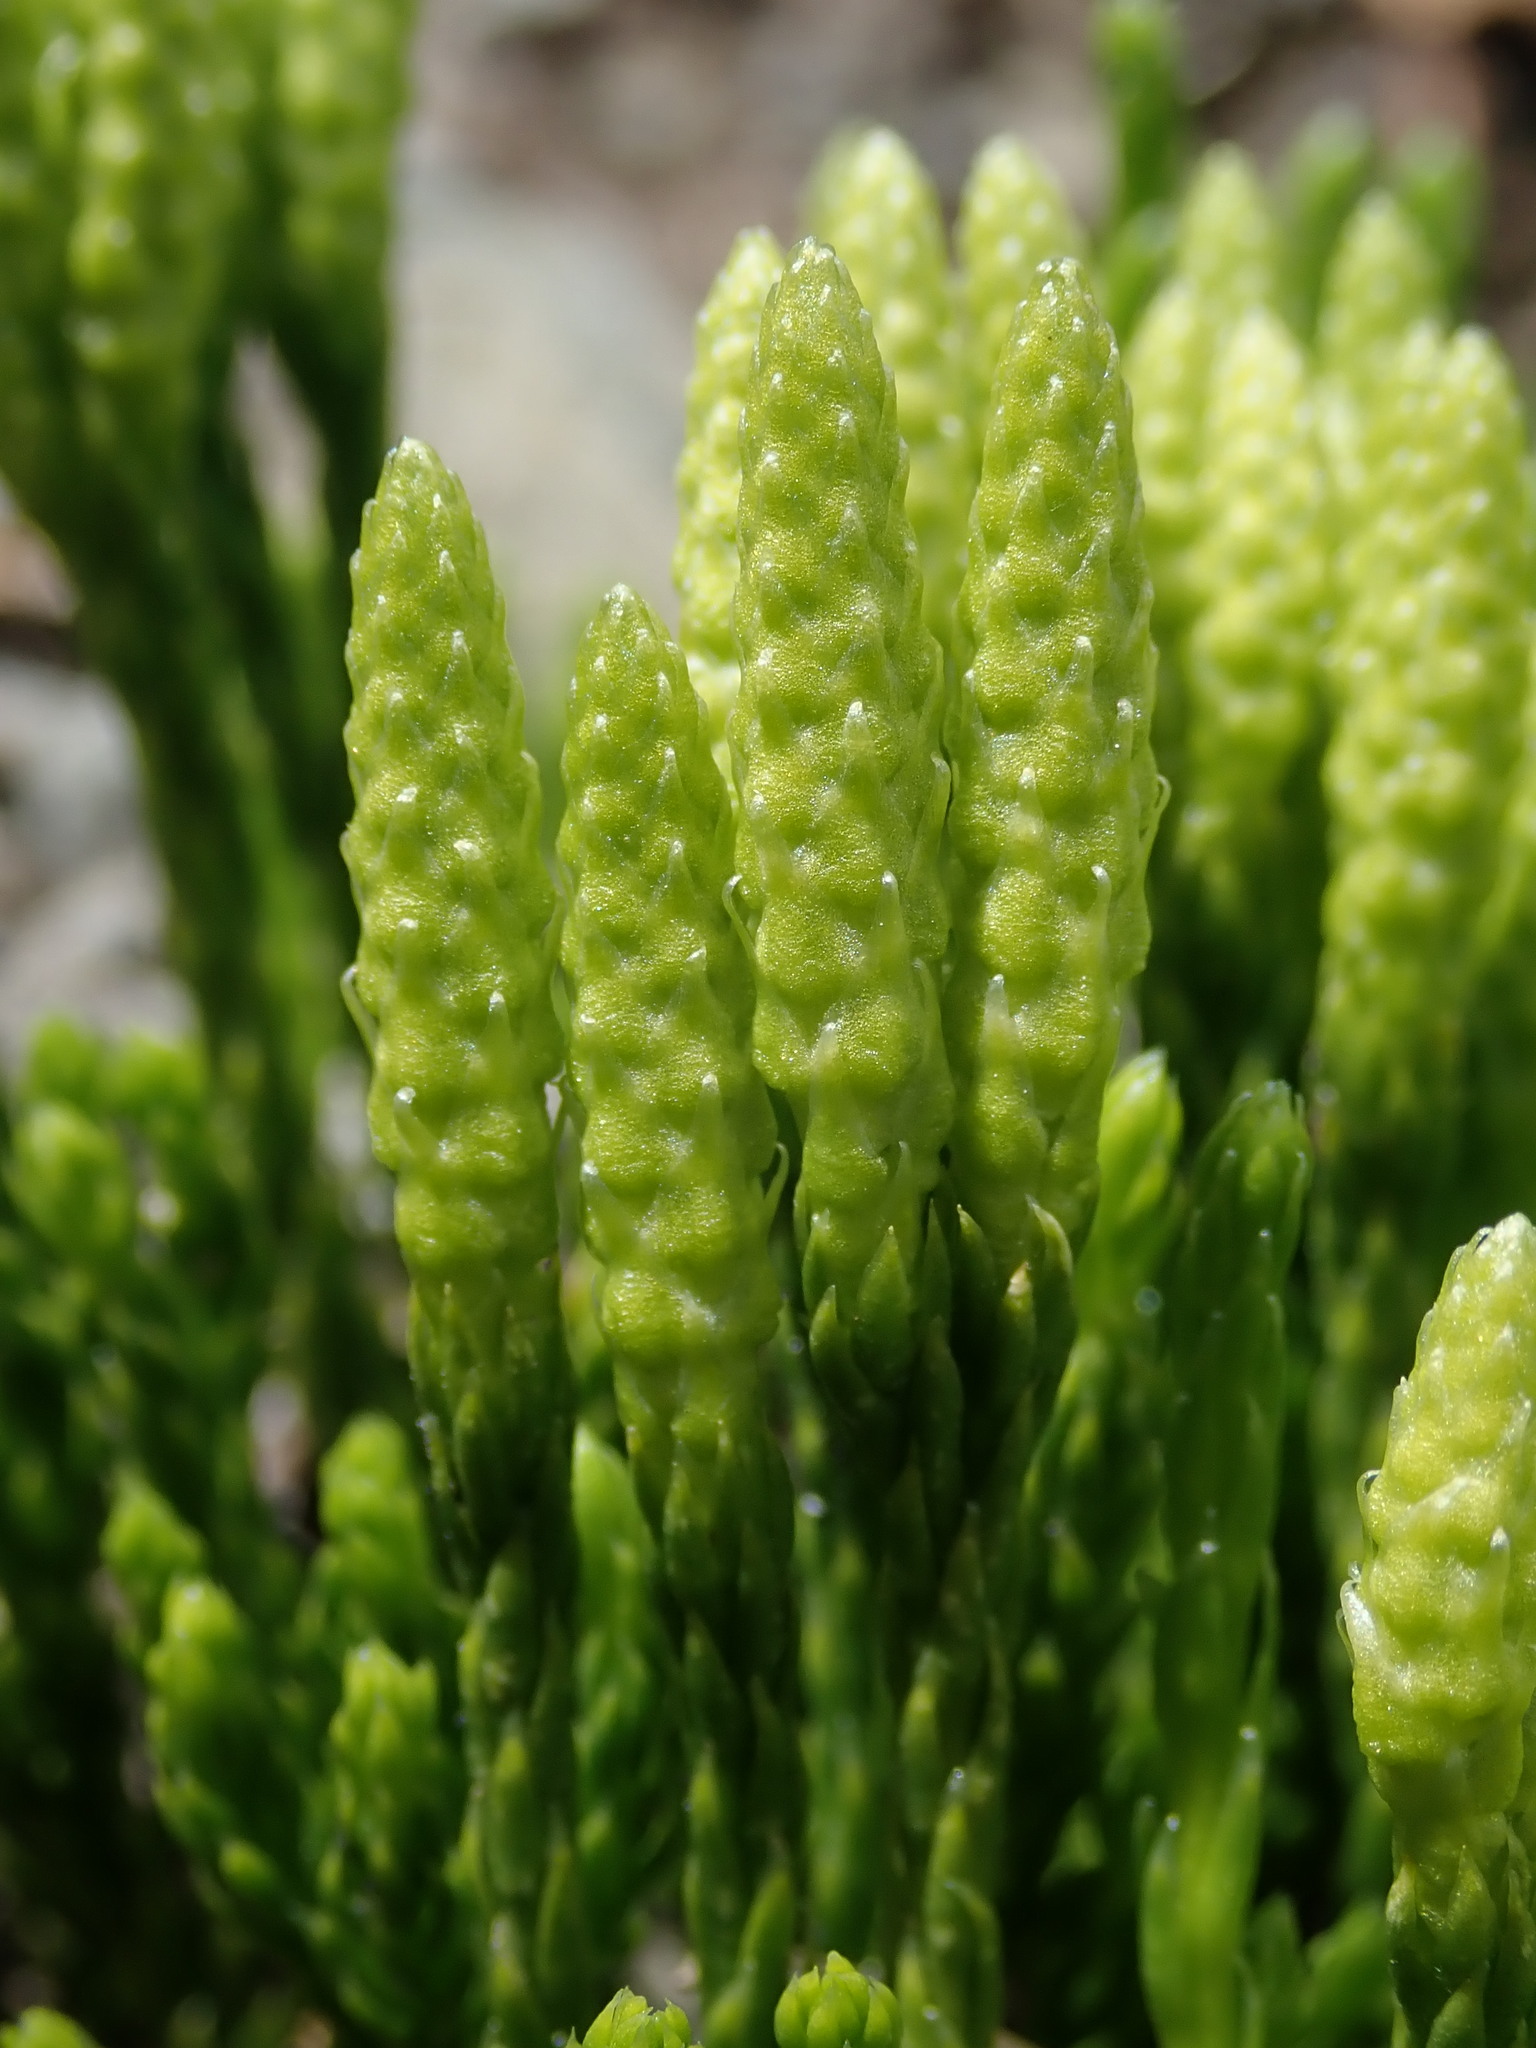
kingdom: Plantae
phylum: Tracheophyta
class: Lycopodiopsida
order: Lycopodiales
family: Lycopodiaceae
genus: Diphasiastrum
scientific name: Diphasiastrum sitchense
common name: Alaska clubmoss
